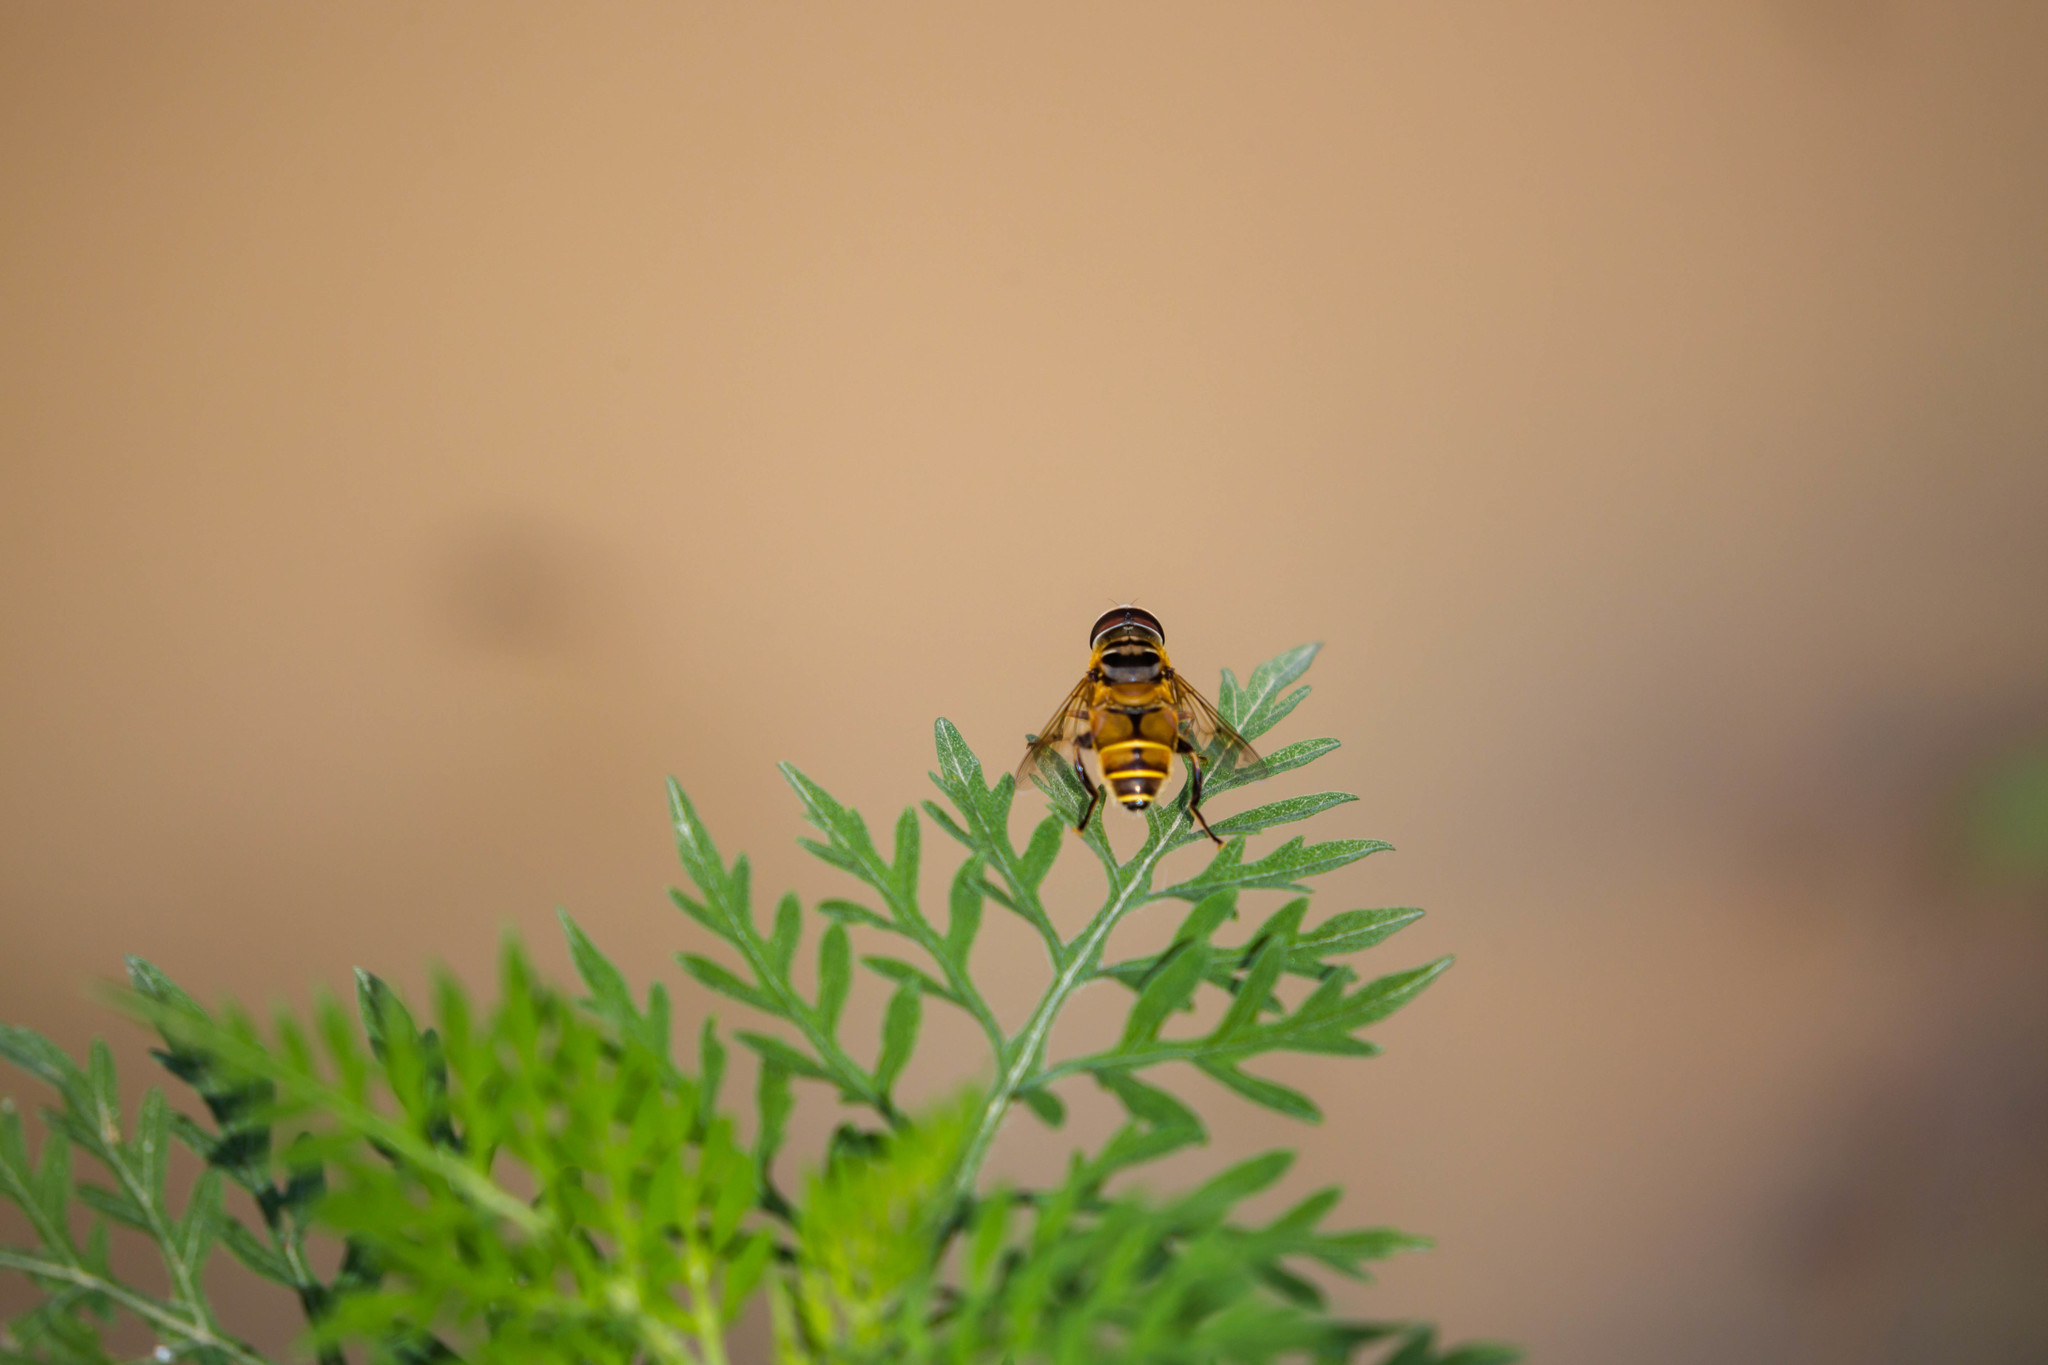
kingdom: Animalia
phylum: Arthropoda
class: Insecta
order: Diptera
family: Syrphidae
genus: Palpada
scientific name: Palpada vinetorum
